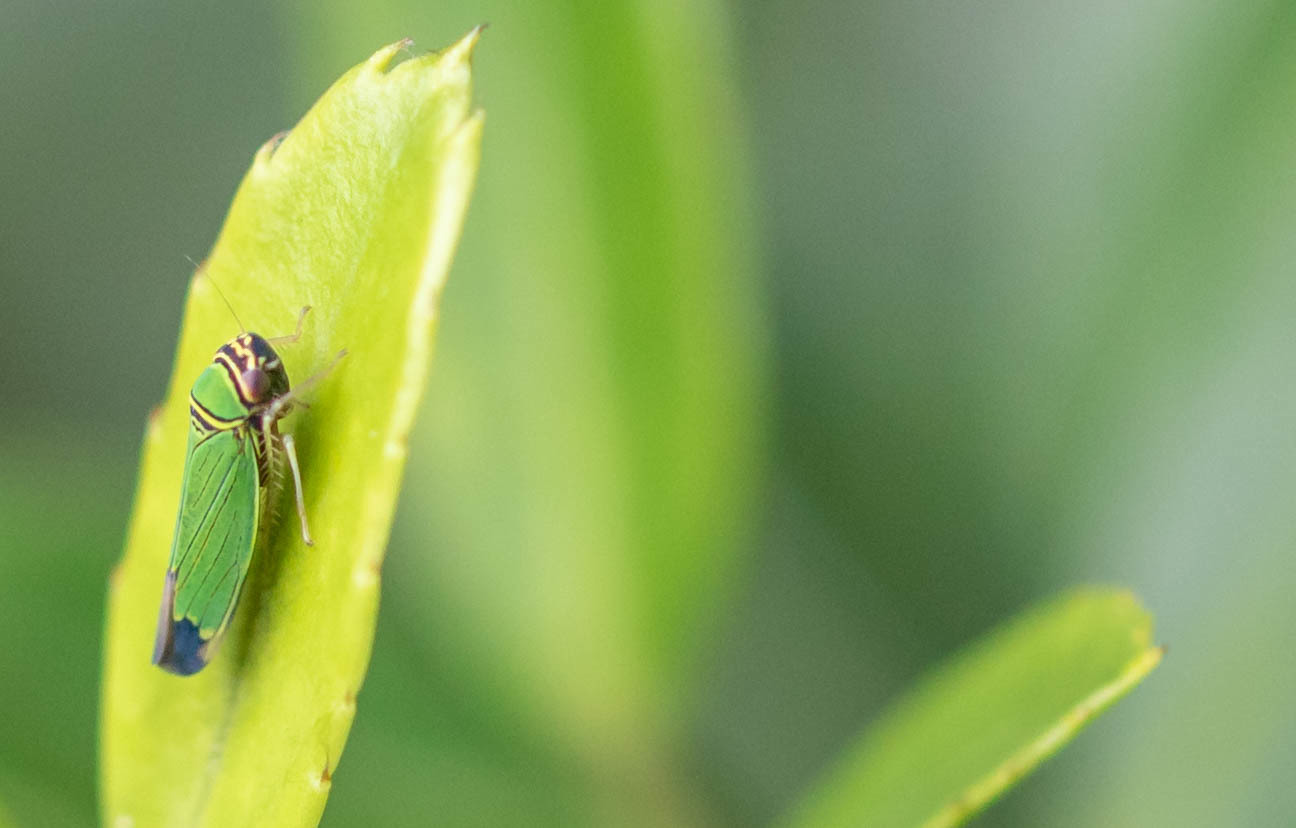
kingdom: Animalia
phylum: Arthropoda
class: Insecta
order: Hemiptera
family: Cicadellidae
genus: Tylozygus
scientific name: Tylozygus geometricus
